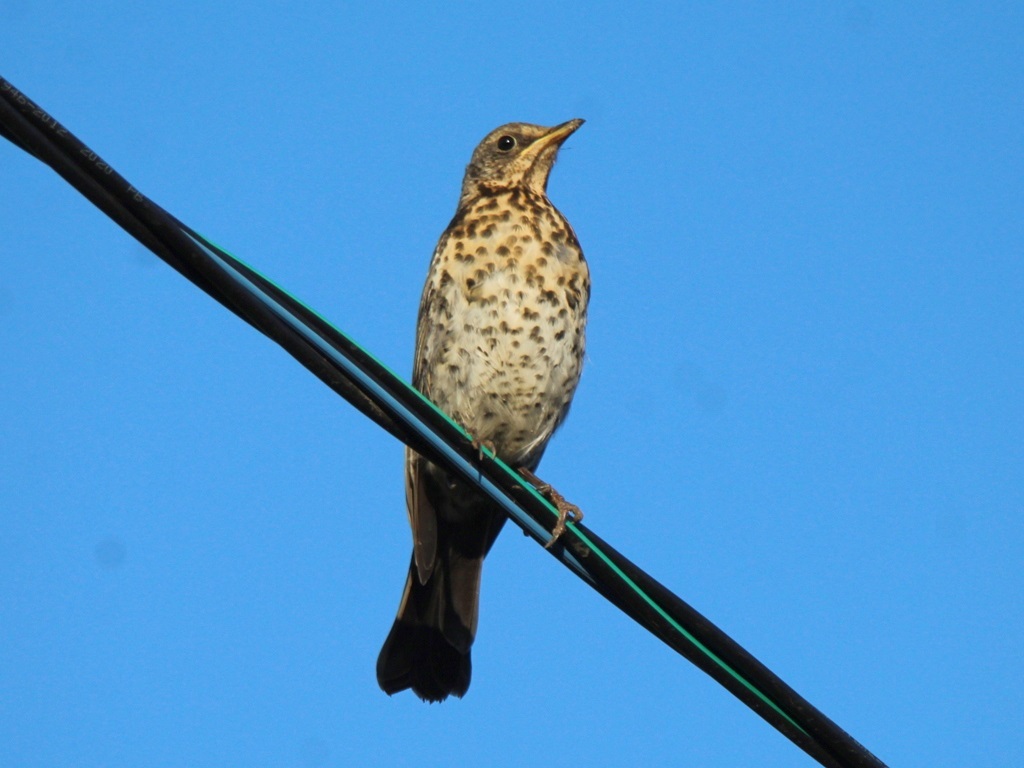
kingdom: Animalia
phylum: Chordata
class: Aves
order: Passeriformes
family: Turdidae
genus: Turdus
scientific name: Turdus pilaris
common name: Fieldfare
